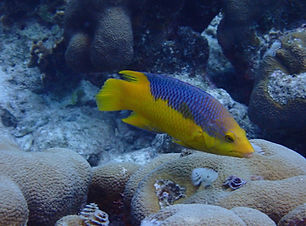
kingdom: Animalia
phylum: Chordata
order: Perciformes
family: Labridae
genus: Bodianus
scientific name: Bodianus rufus
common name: Spanish hogfish
